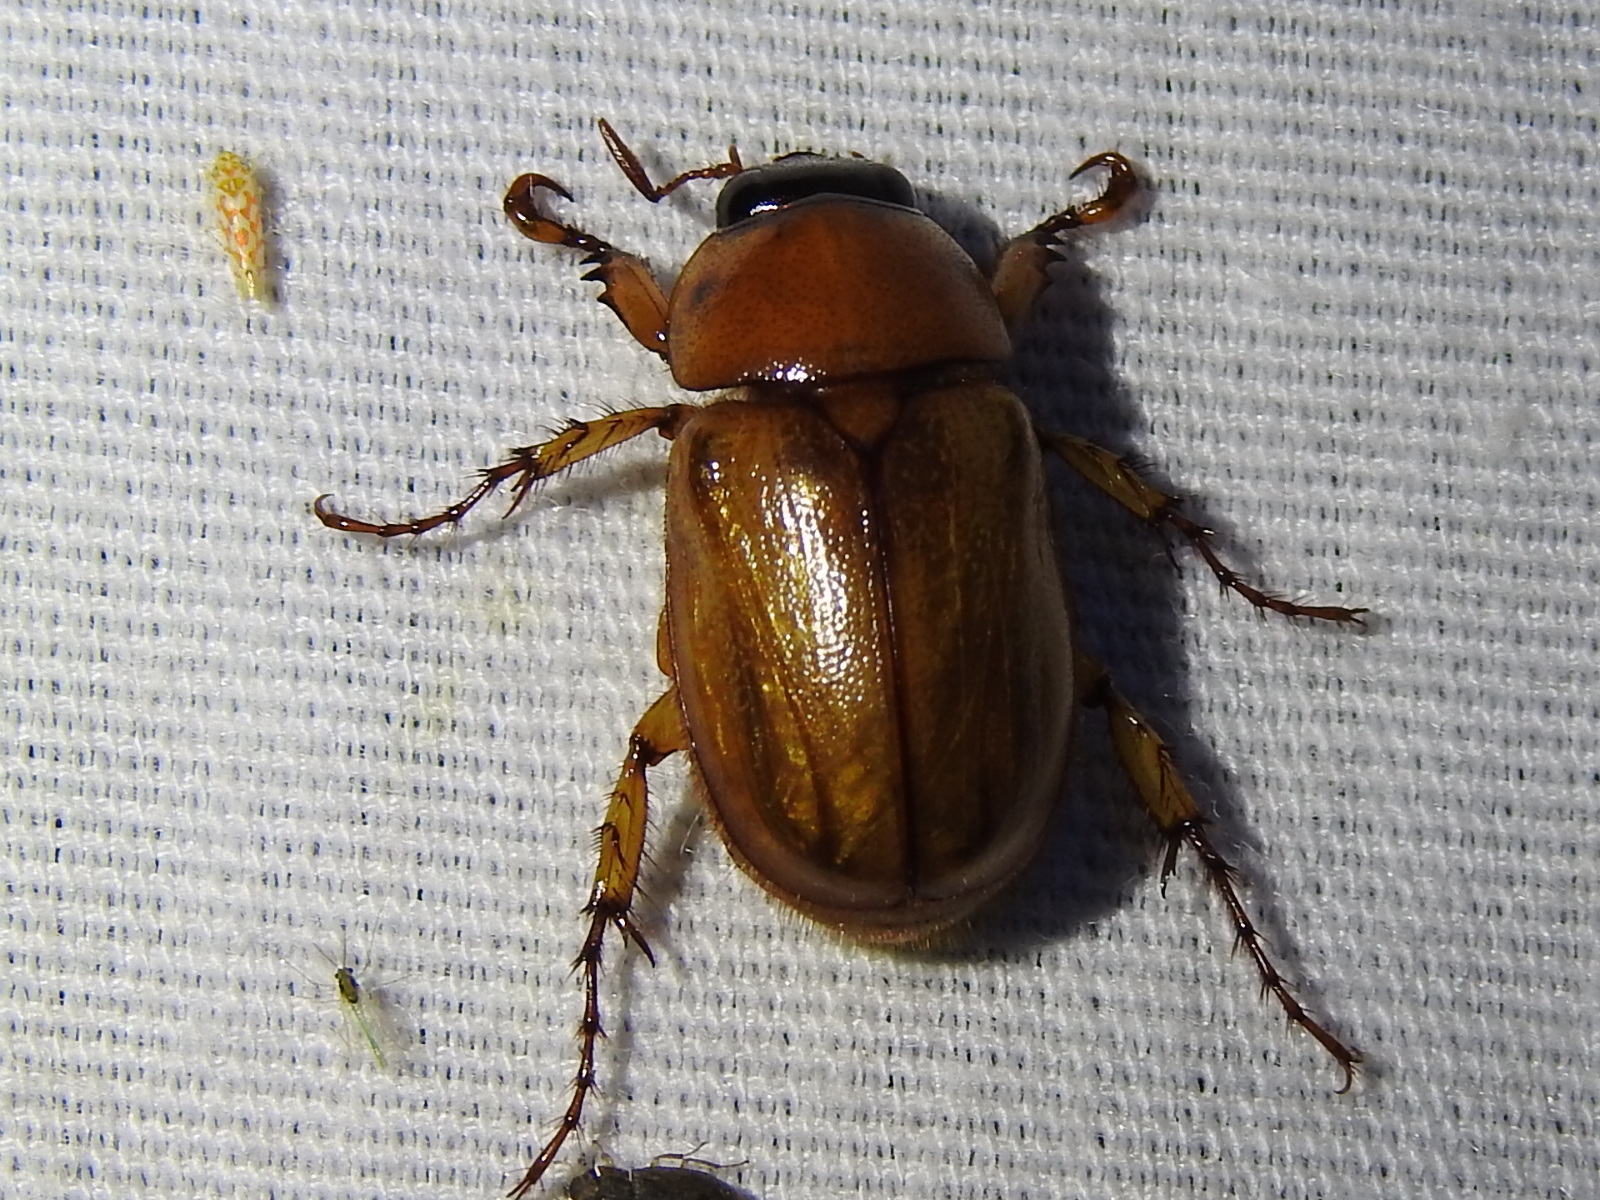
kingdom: Animalia
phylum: Arthropoda
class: Insecta
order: Coleoptera
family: Scarabaeidae
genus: Cyclocephala
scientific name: Cyclocephala lurida
